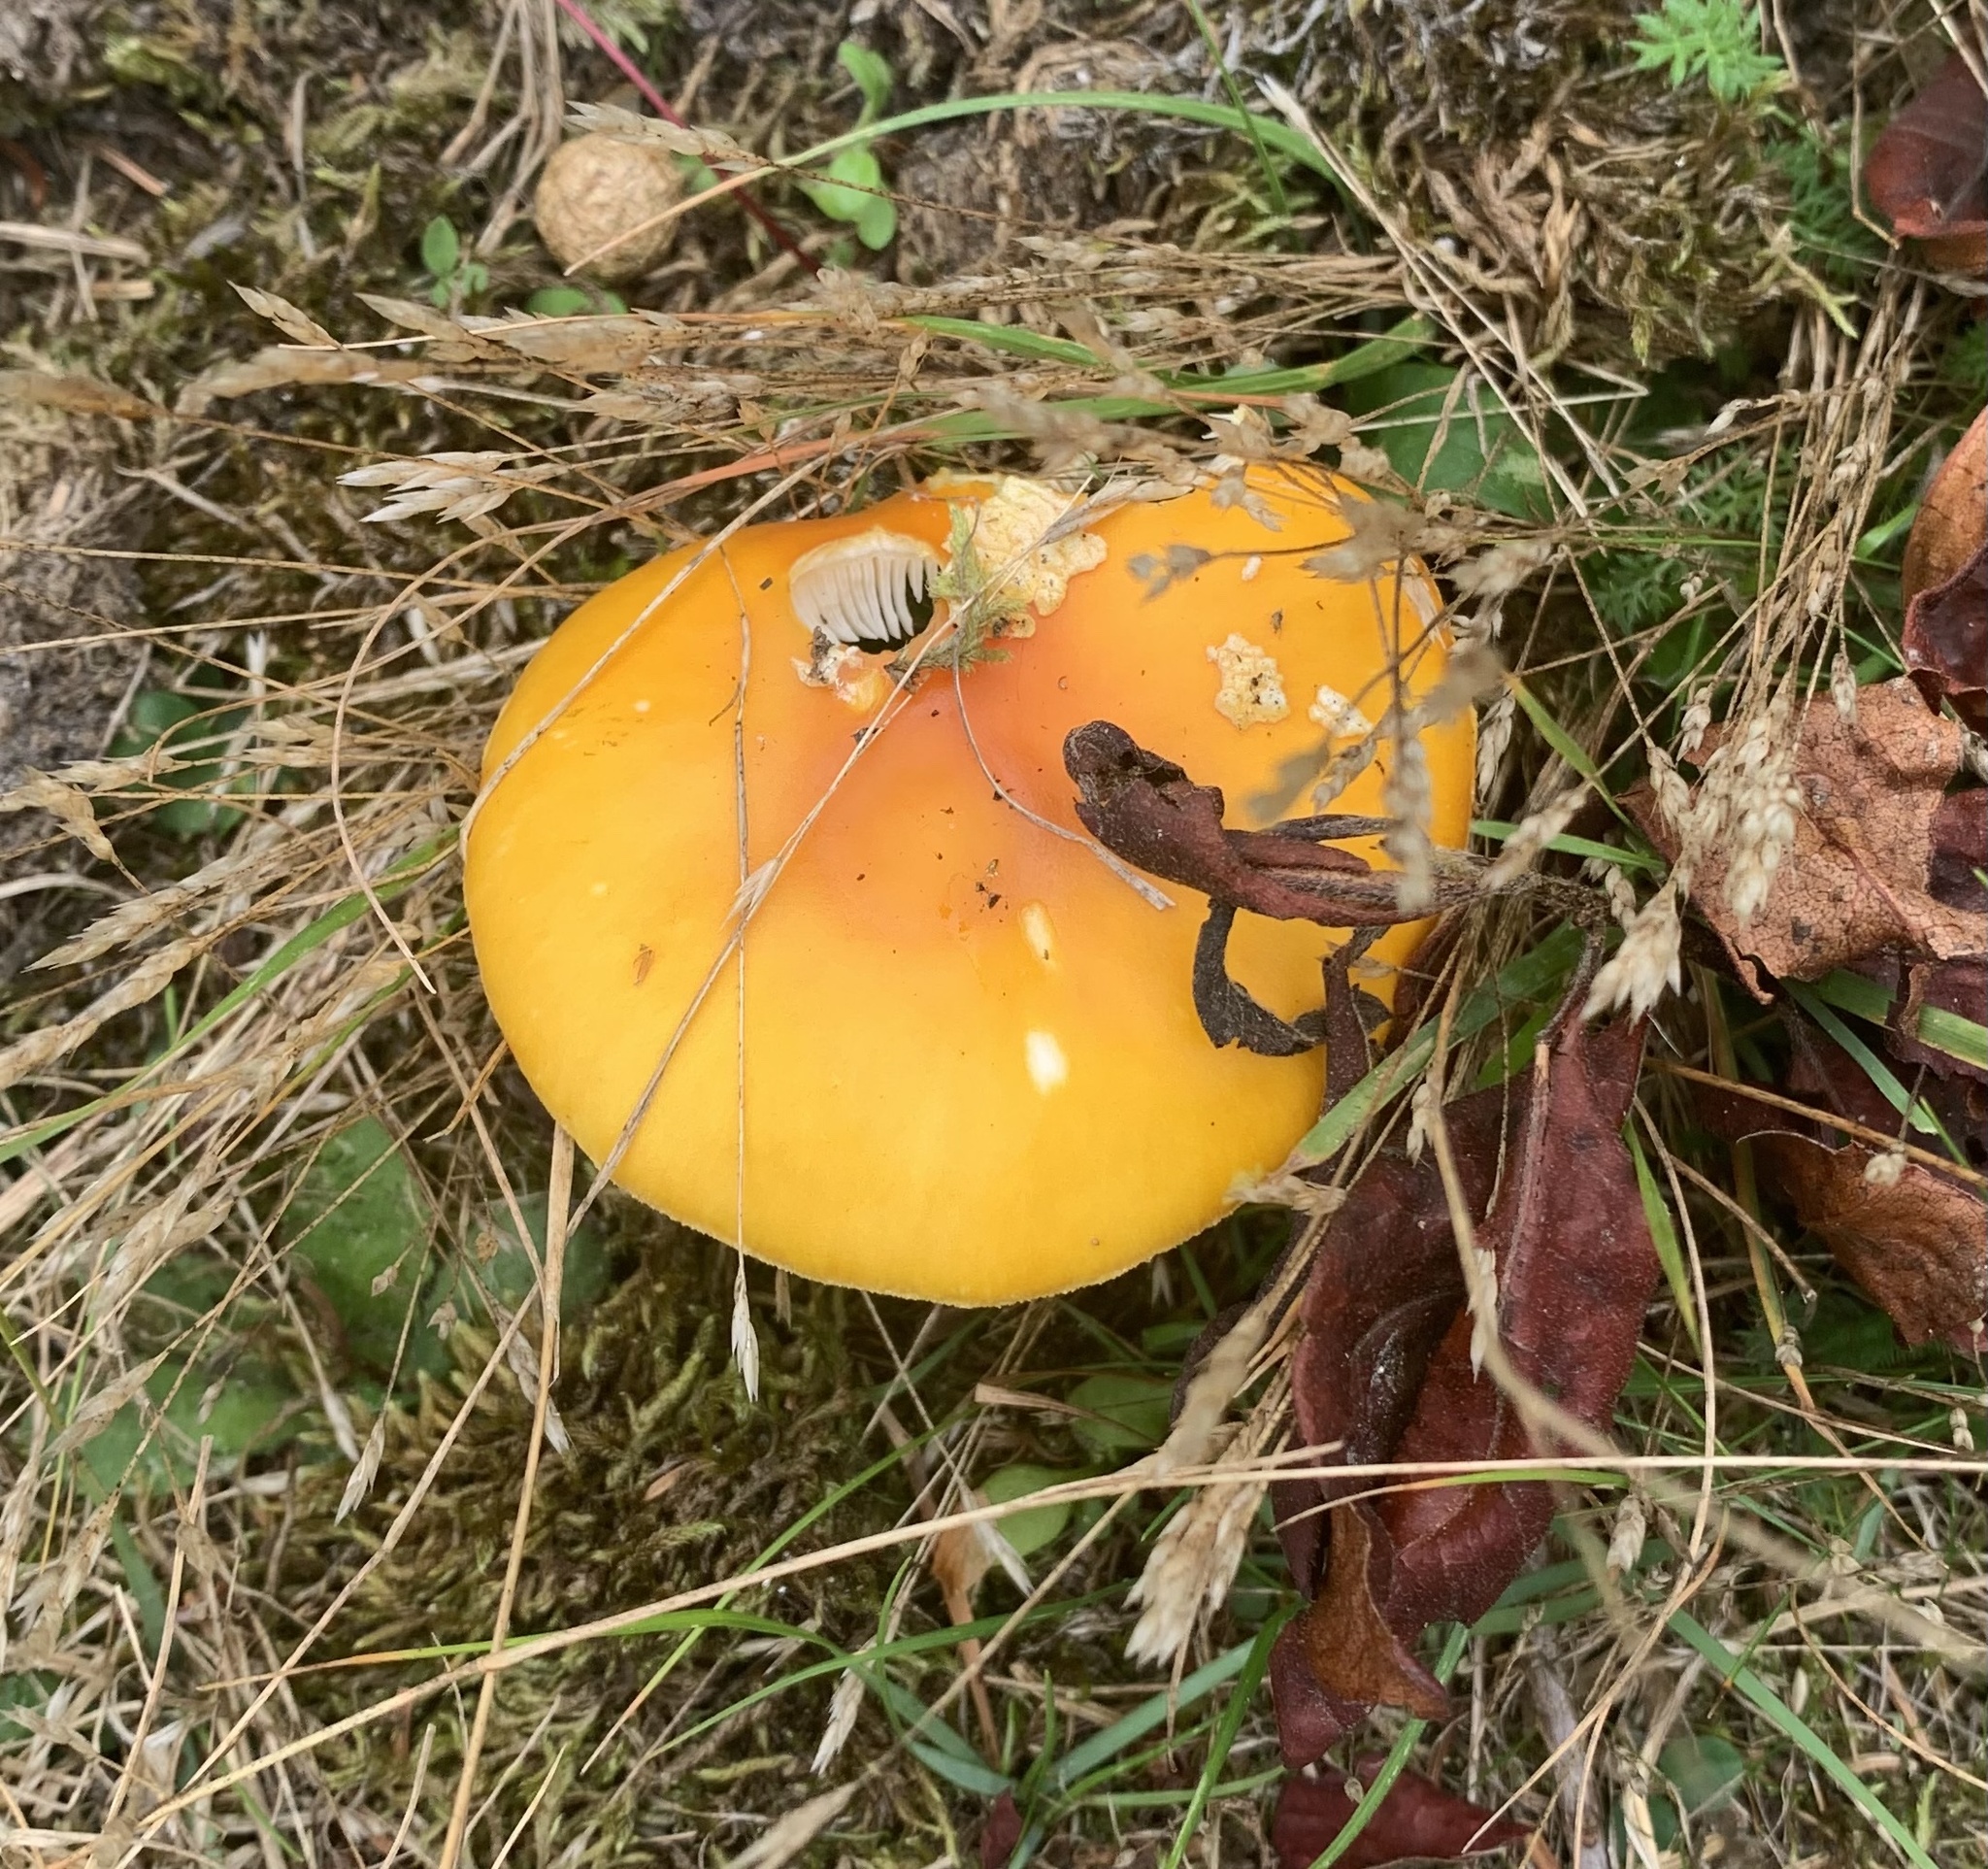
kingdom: Fungi
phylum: Basidiomycota
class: Agaricomycetes
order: Agaricales
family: Amanitaceae
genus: Amanita
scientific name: Amanita muscaria
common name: Fly agaric
